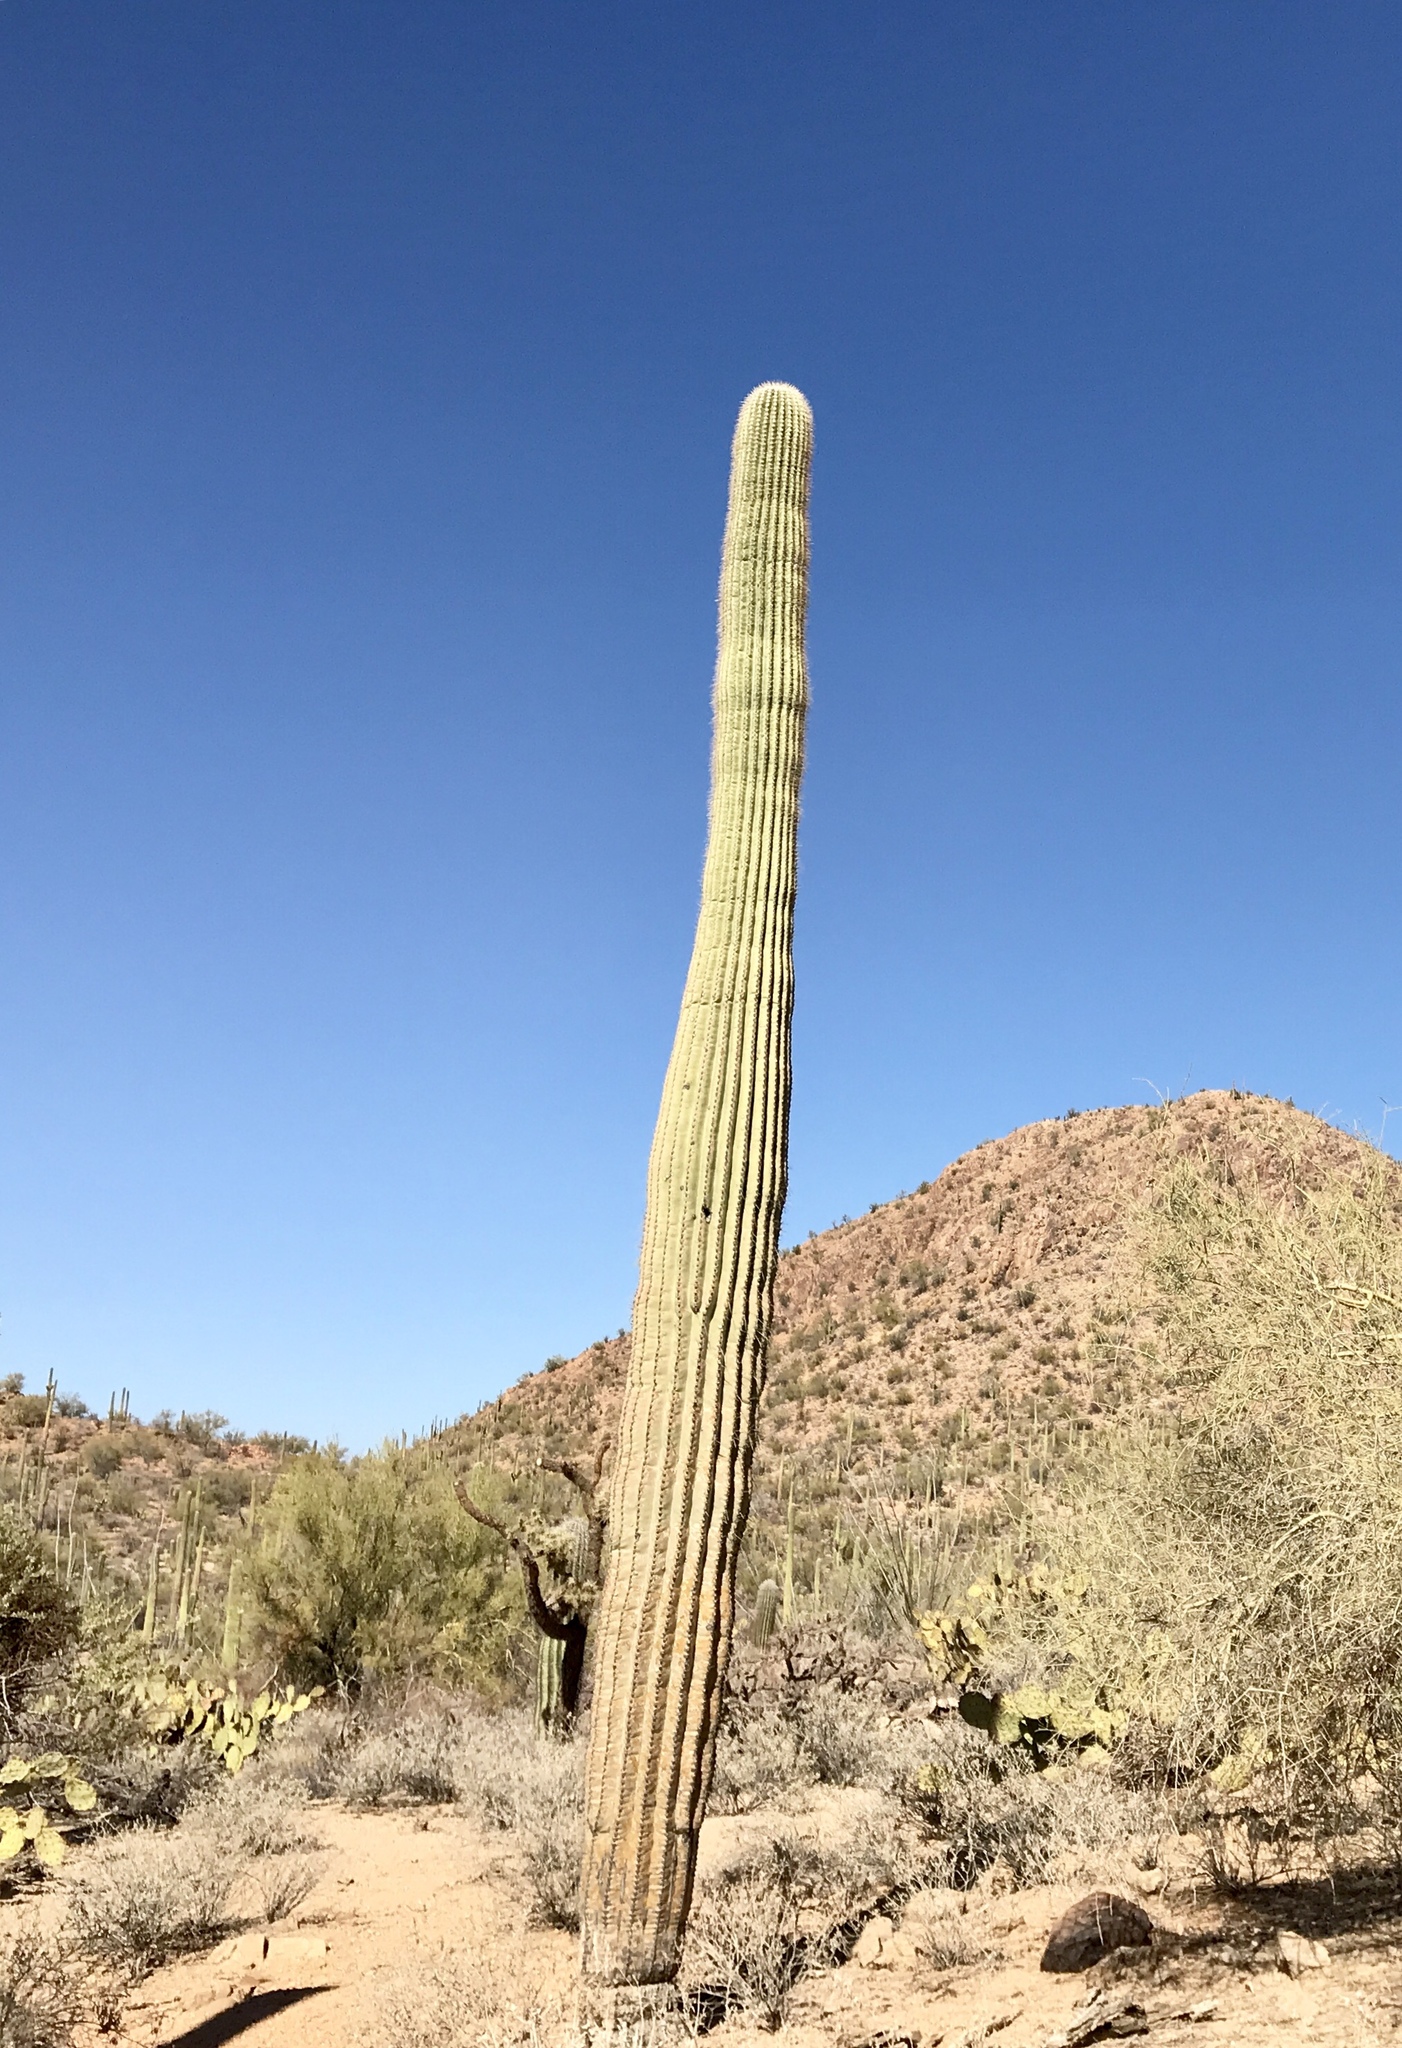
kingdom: Plantae
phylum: Tracheophyta
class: Magnoliopsida
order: Caryophyllales
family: Cactaceae
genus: Carnegiea
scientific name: Carnegiea gigantea
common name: Saguaro
